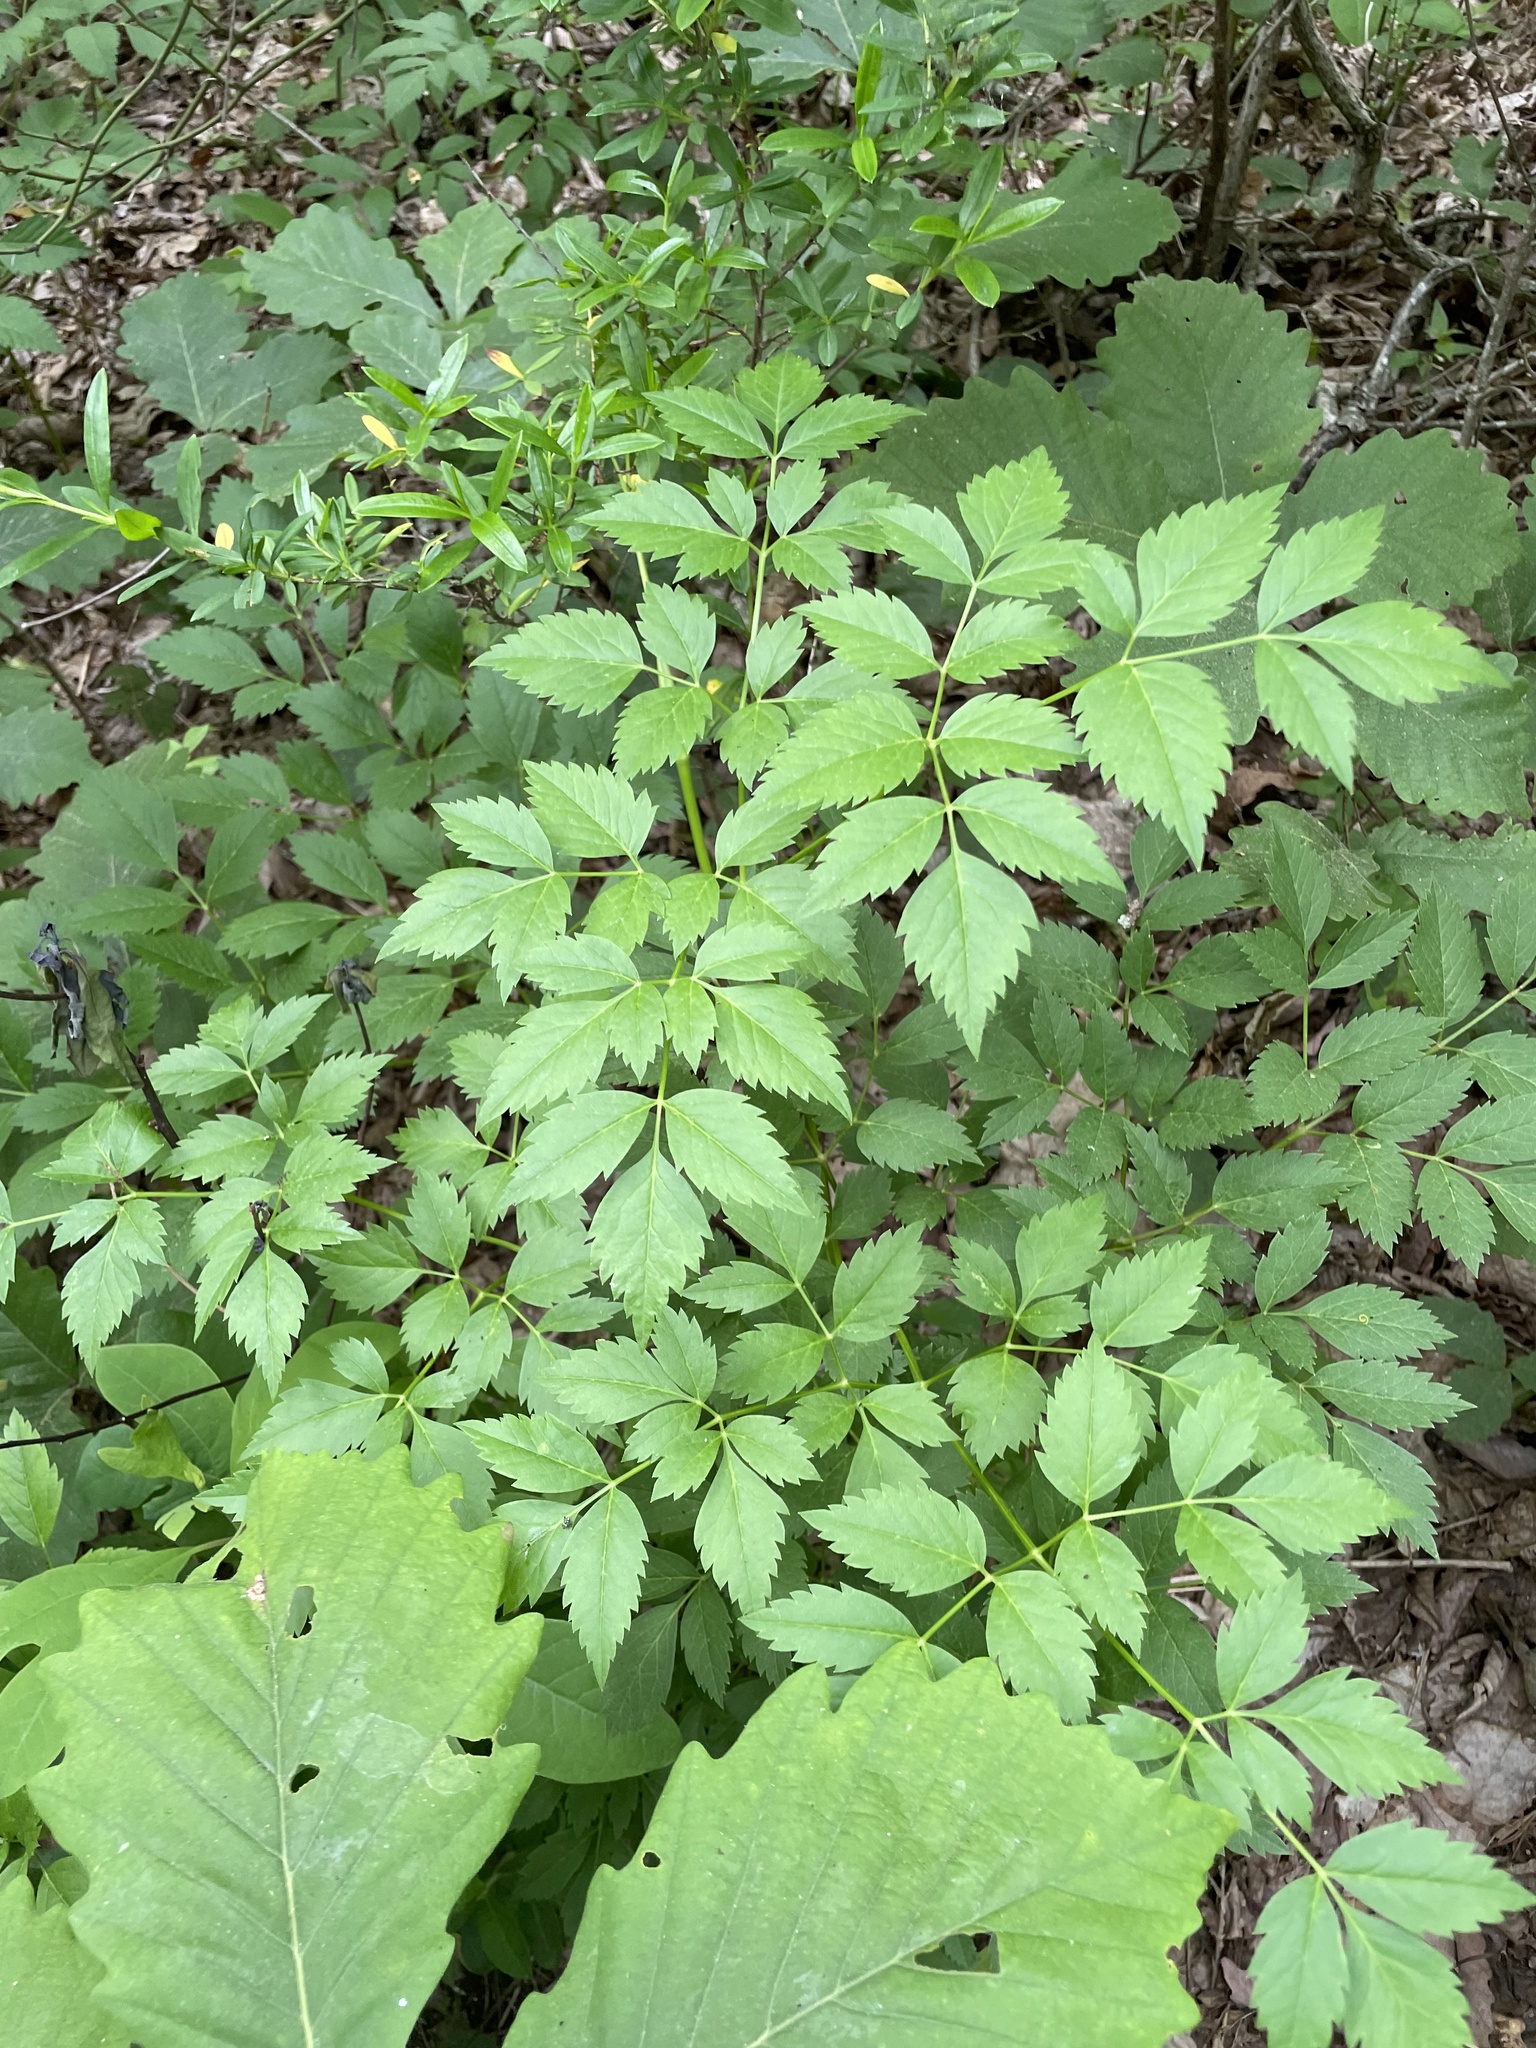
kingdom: Plantae
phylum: Tracheophyta
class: Magnoliopsida
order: Apiales
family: Apiaceae
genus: Ligusticum
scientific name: Ligusticum canadense
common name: American lovage
